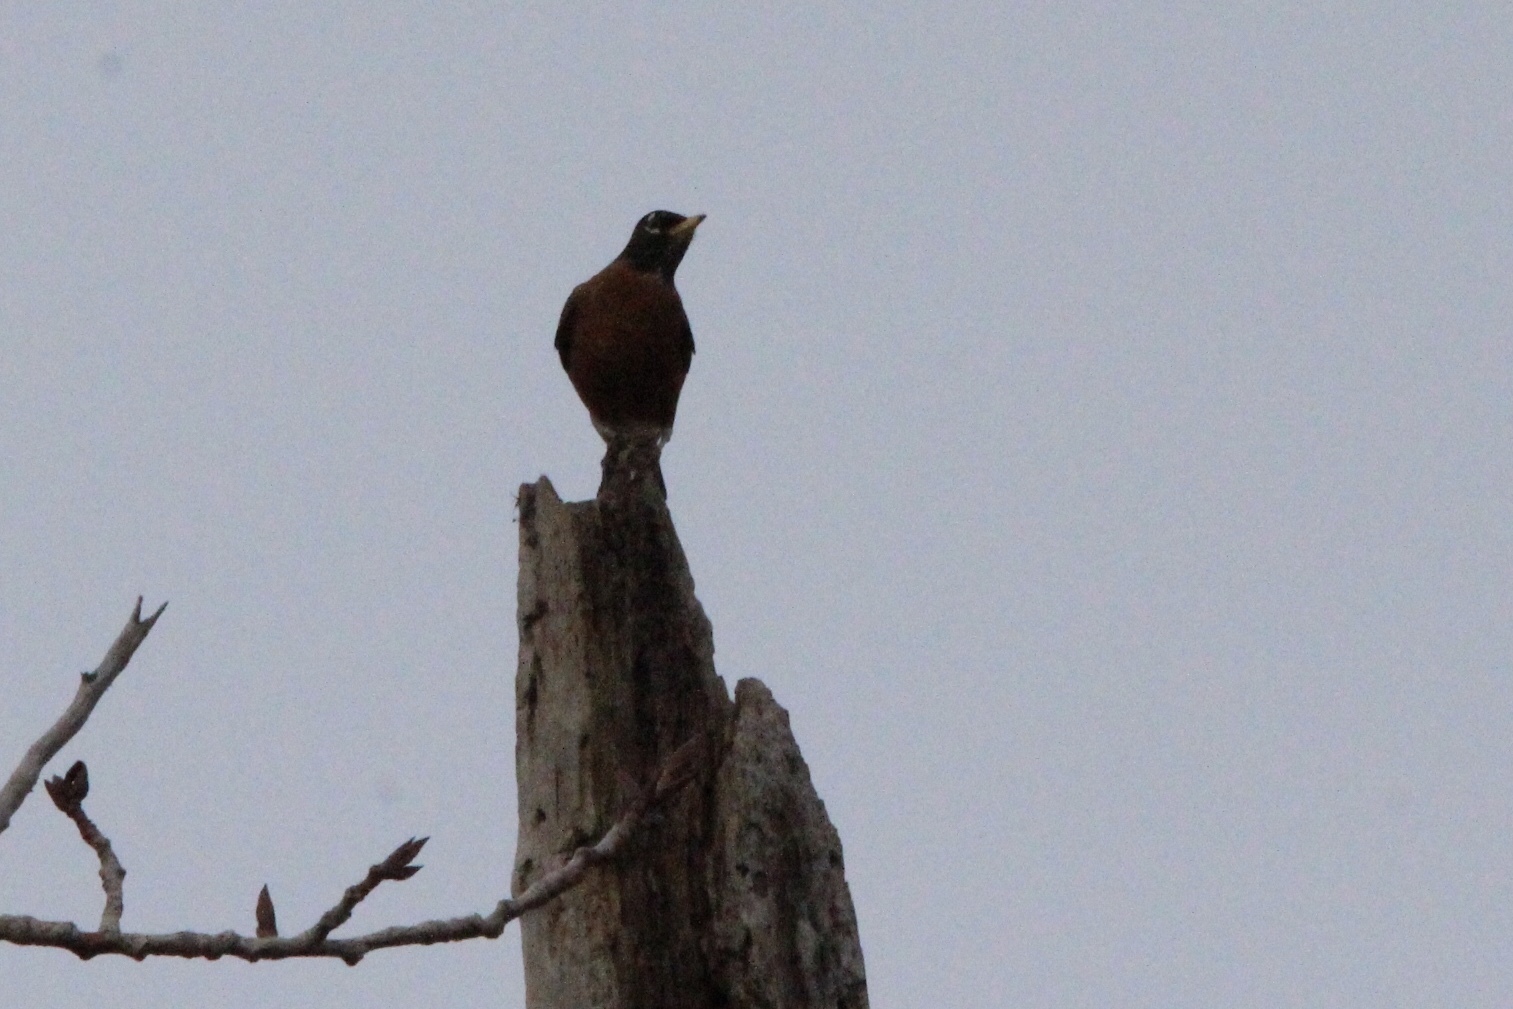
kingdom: Animalia
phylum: Chordata
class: Aves
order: Passeriformes
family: Turdidae
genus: Turdus
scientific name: Turdus migratorius
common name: American robin
